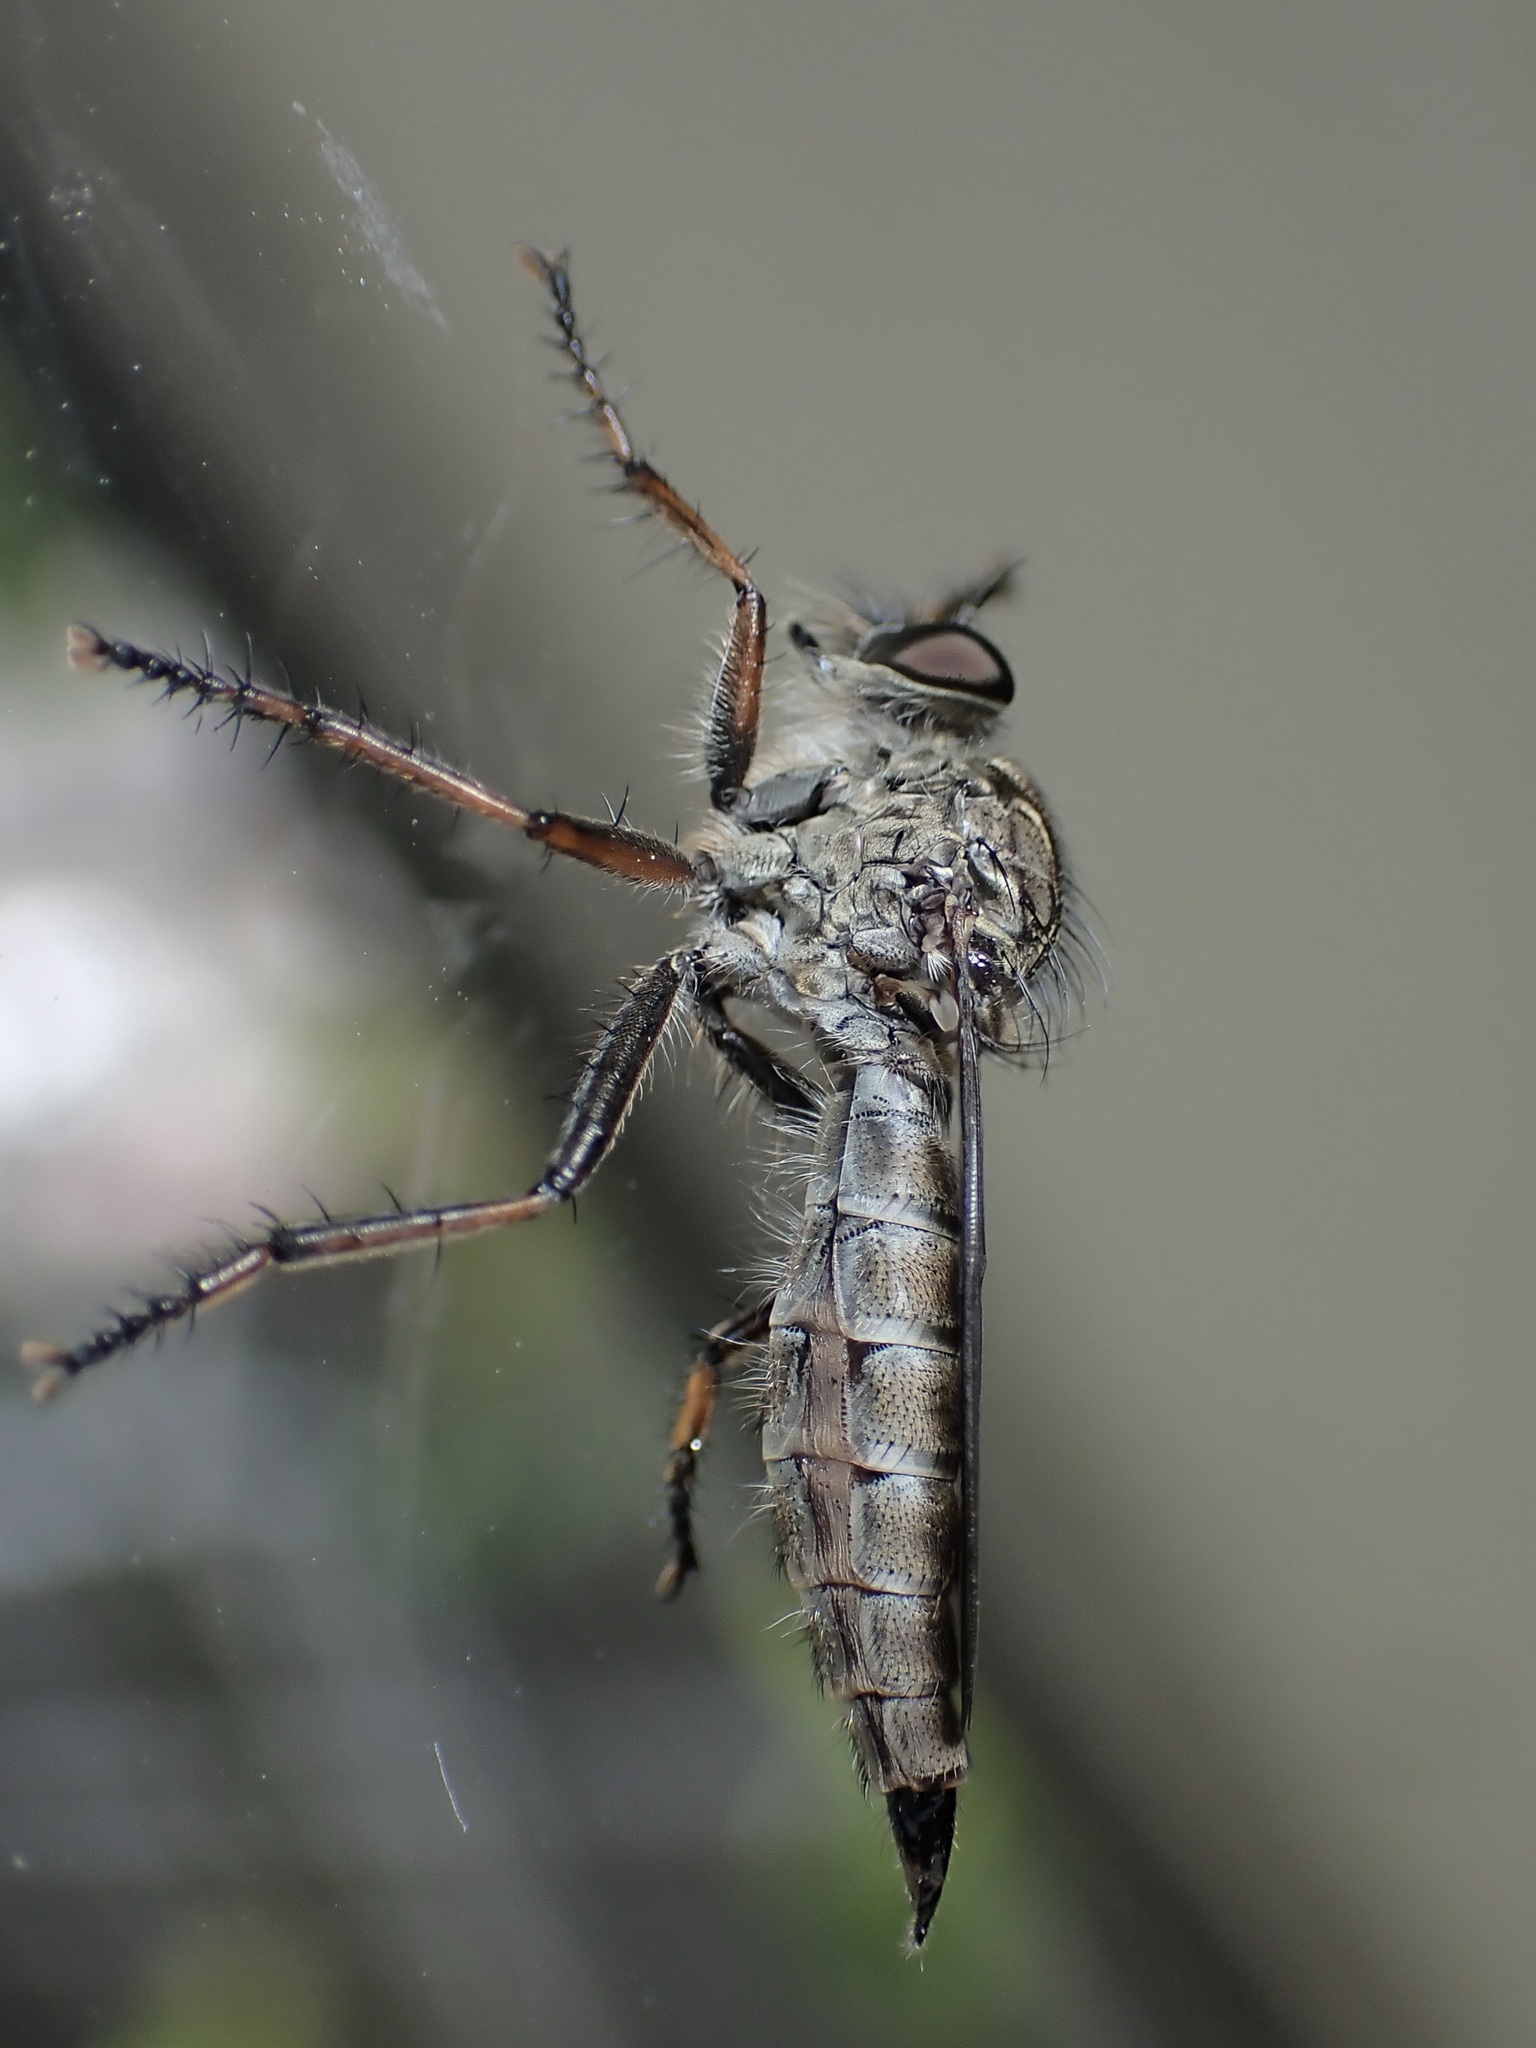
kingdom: Animalia
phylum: Arthropoda
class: Insecta
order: Diptera
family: Asilidae
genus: Machimus
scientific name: Machimus atricapillus
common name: Kite-tailed robberfly
